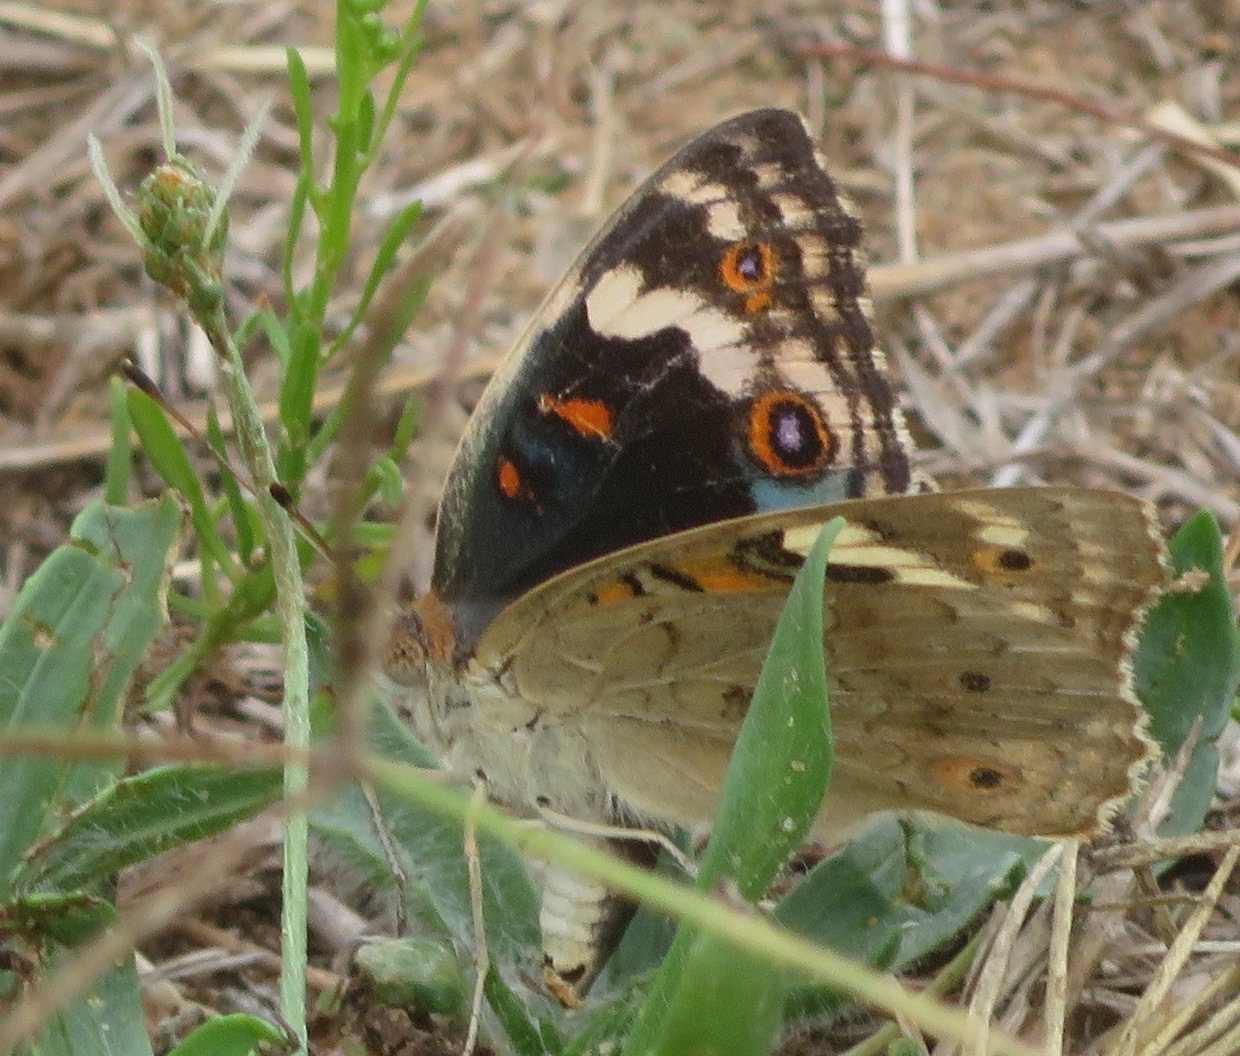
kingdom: Animalia
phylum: Arthropoda
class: Insecta
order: Lepidoptera
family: Nymphalidae
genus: Junonia
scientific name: Junonia orithya
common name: Blue pansy
